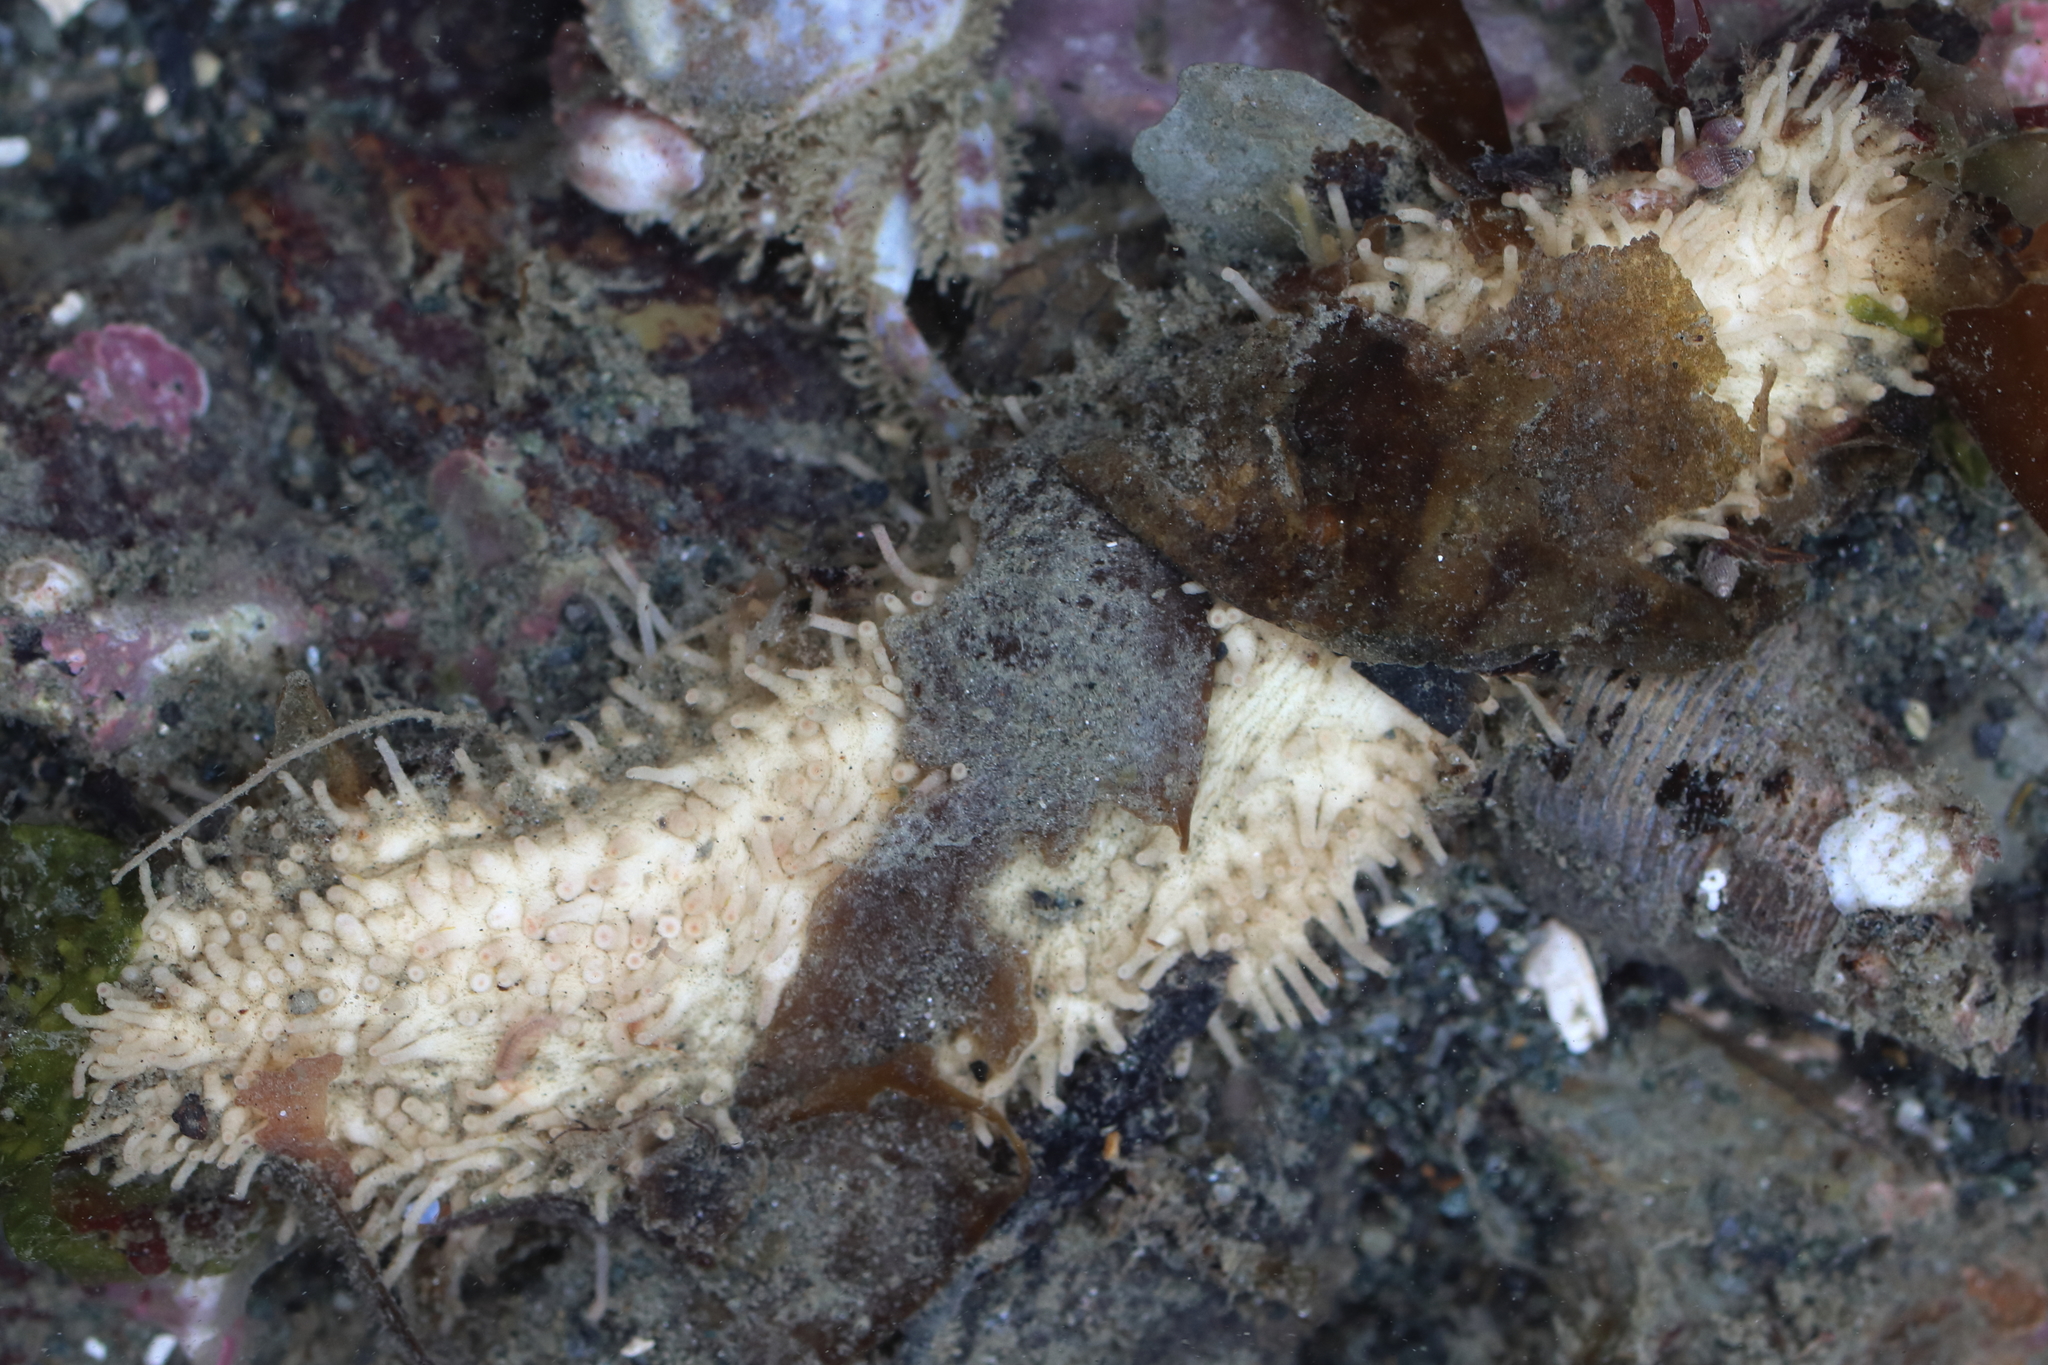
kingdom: Animalia
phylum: Echinodermata
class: Holothuroidea
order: Dendrochirotida
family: Sclerodactylidae
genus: Eupentacta
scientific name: Eupentacta pseudoquinquesemita
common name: Pseudo-white sea cucumber
